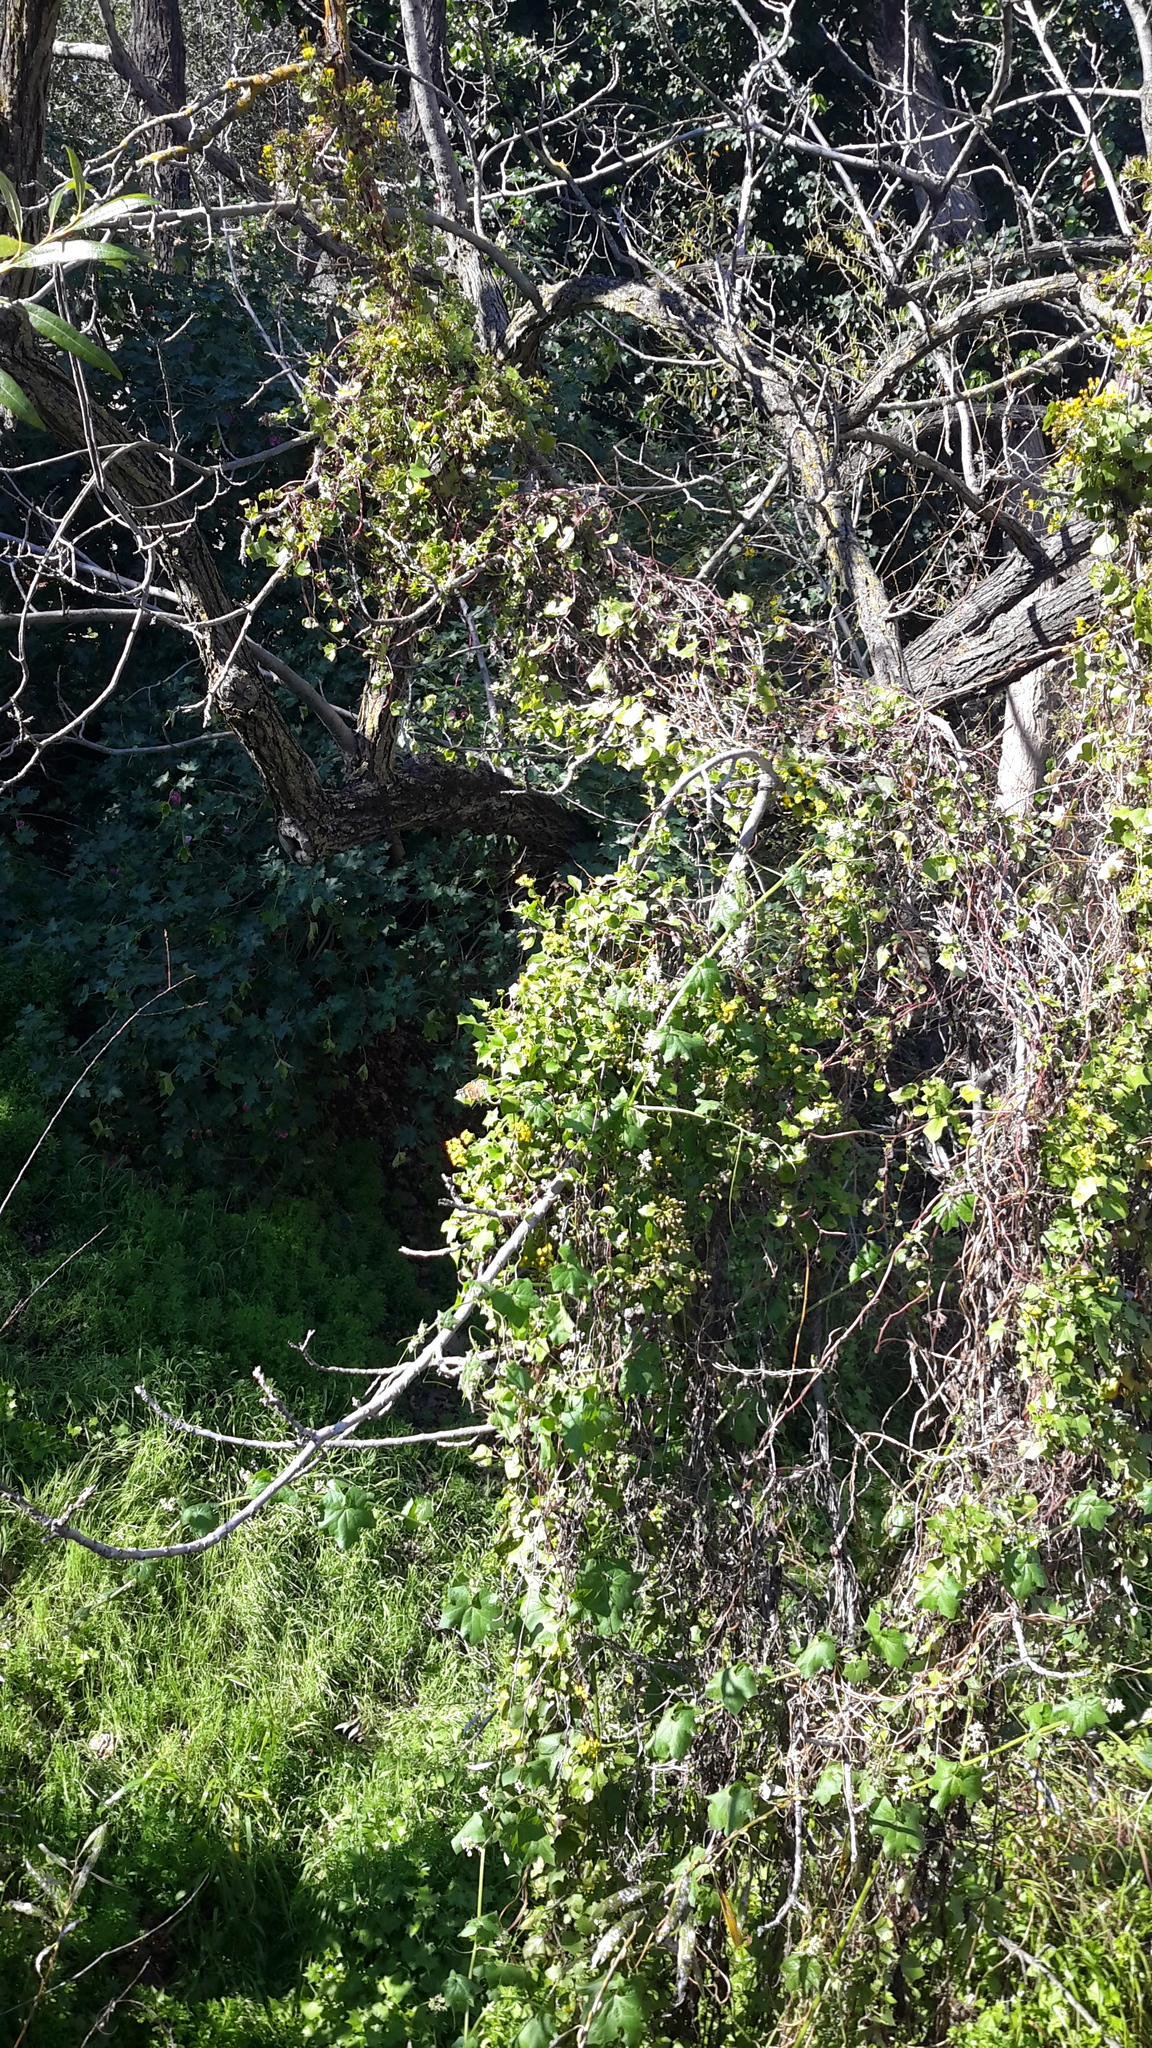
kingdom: Animalia
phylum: Arthropoda
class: Insecta
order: Lepidoptera
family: Nymphalidae
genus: Vanessa
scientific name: Vanessa cardui
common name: Painted lady
